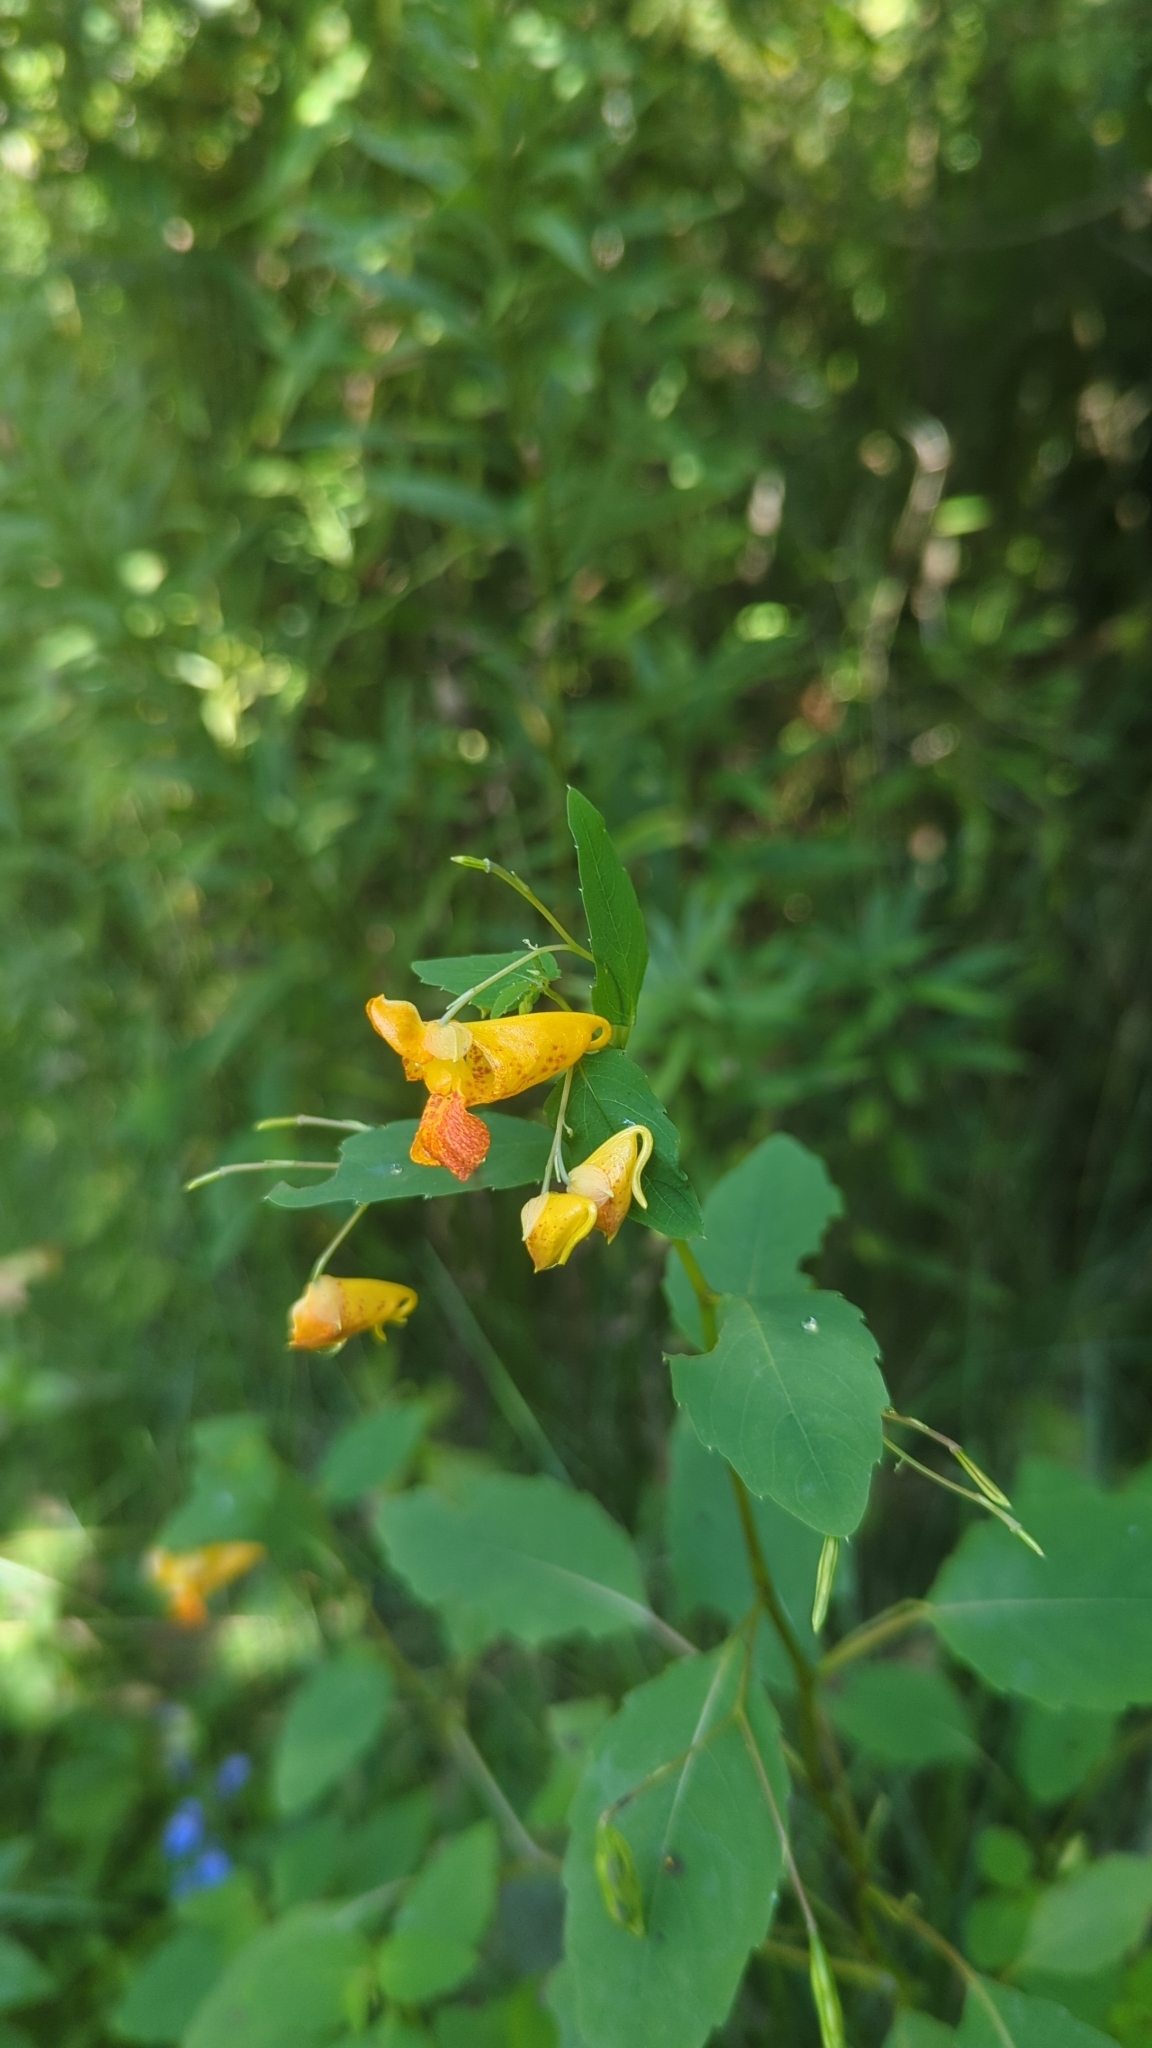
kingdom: Plantae
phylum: Tracheophyta
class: Magnoliopsida
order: Ericales
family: Balsaminaceae
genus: Impatiens
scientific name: Impatiens capensis
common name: Orange balsam
